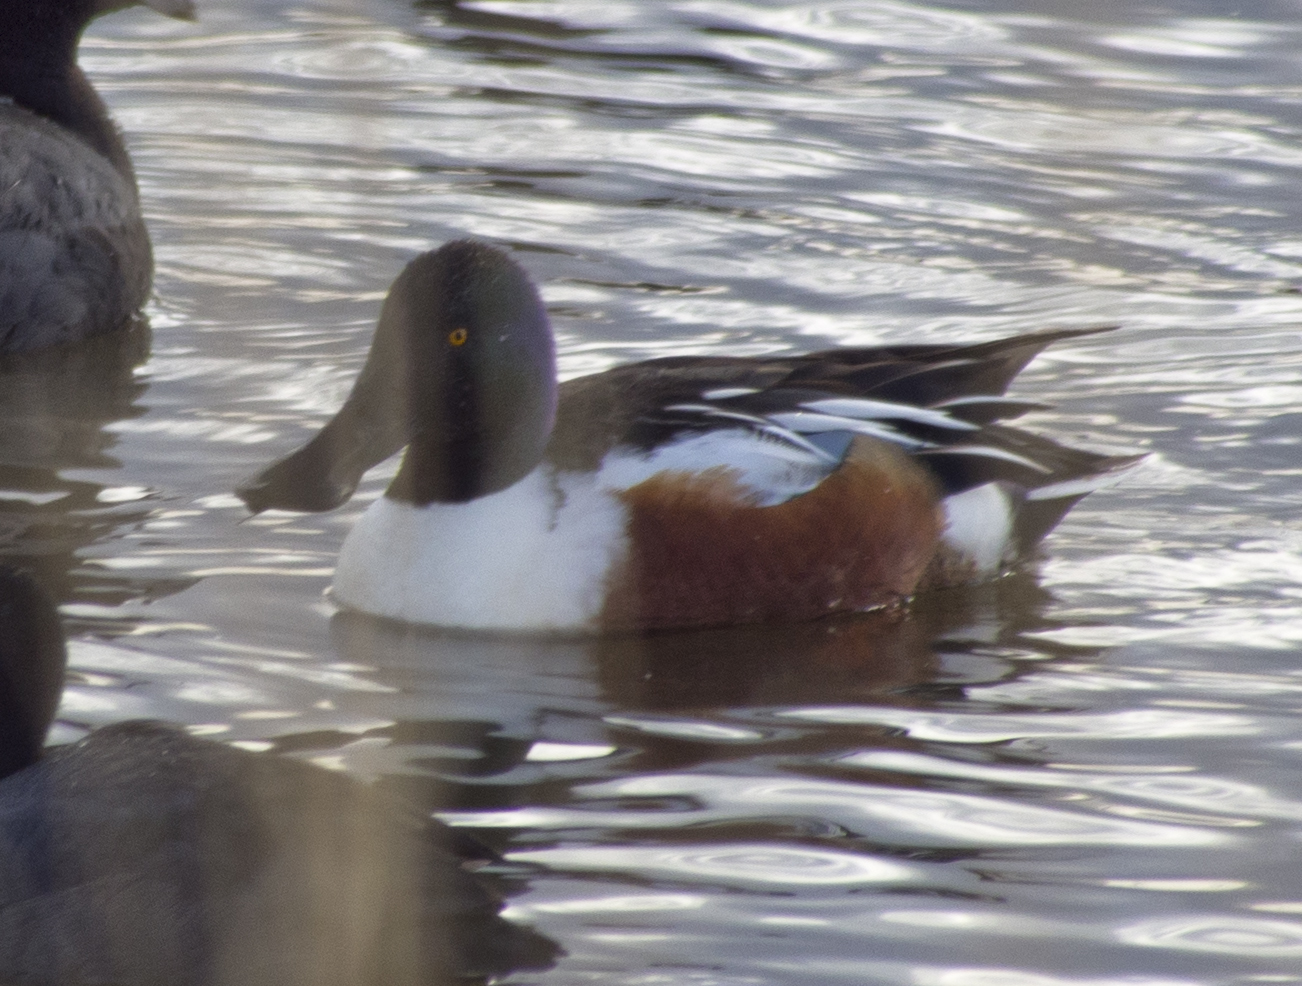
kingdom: Animalia
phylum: Chordata
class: Aves
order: Anseriformes
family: Anatidae
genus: Spatula
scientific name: Spatula clypeata
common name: Northern shoveler
